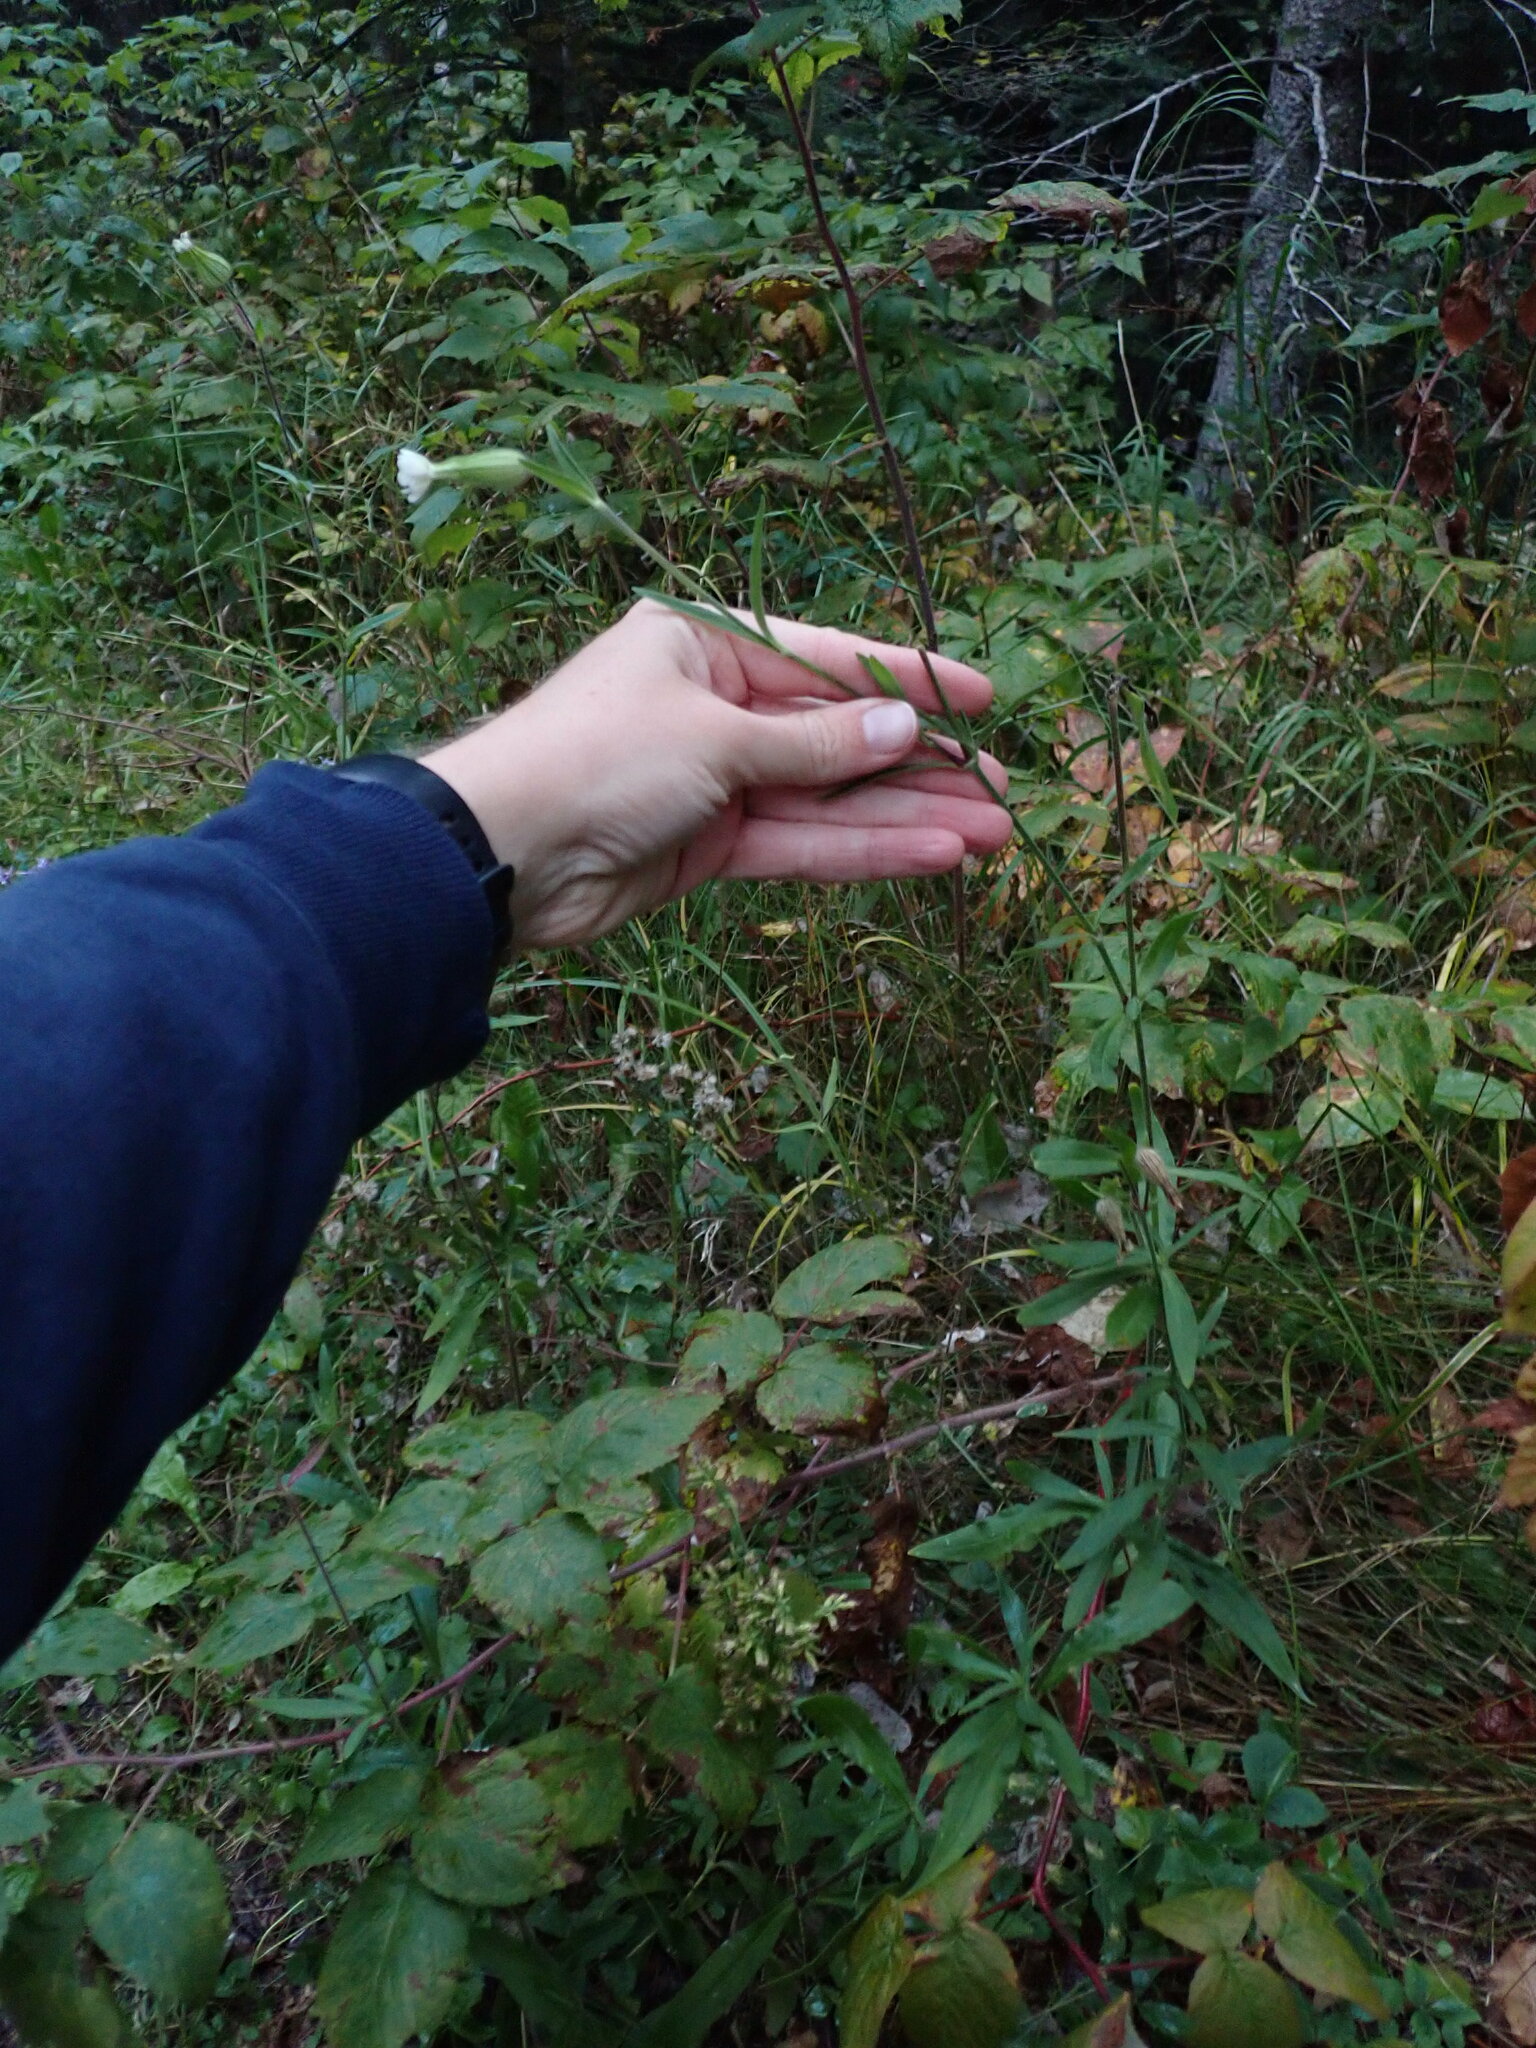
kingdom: Plantae
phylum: Tracheophyta
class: Magnoliopsida
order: Caryophyllales
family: Caryophyllaceae
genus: Silene
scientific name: Silene latifolia
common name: White campion
